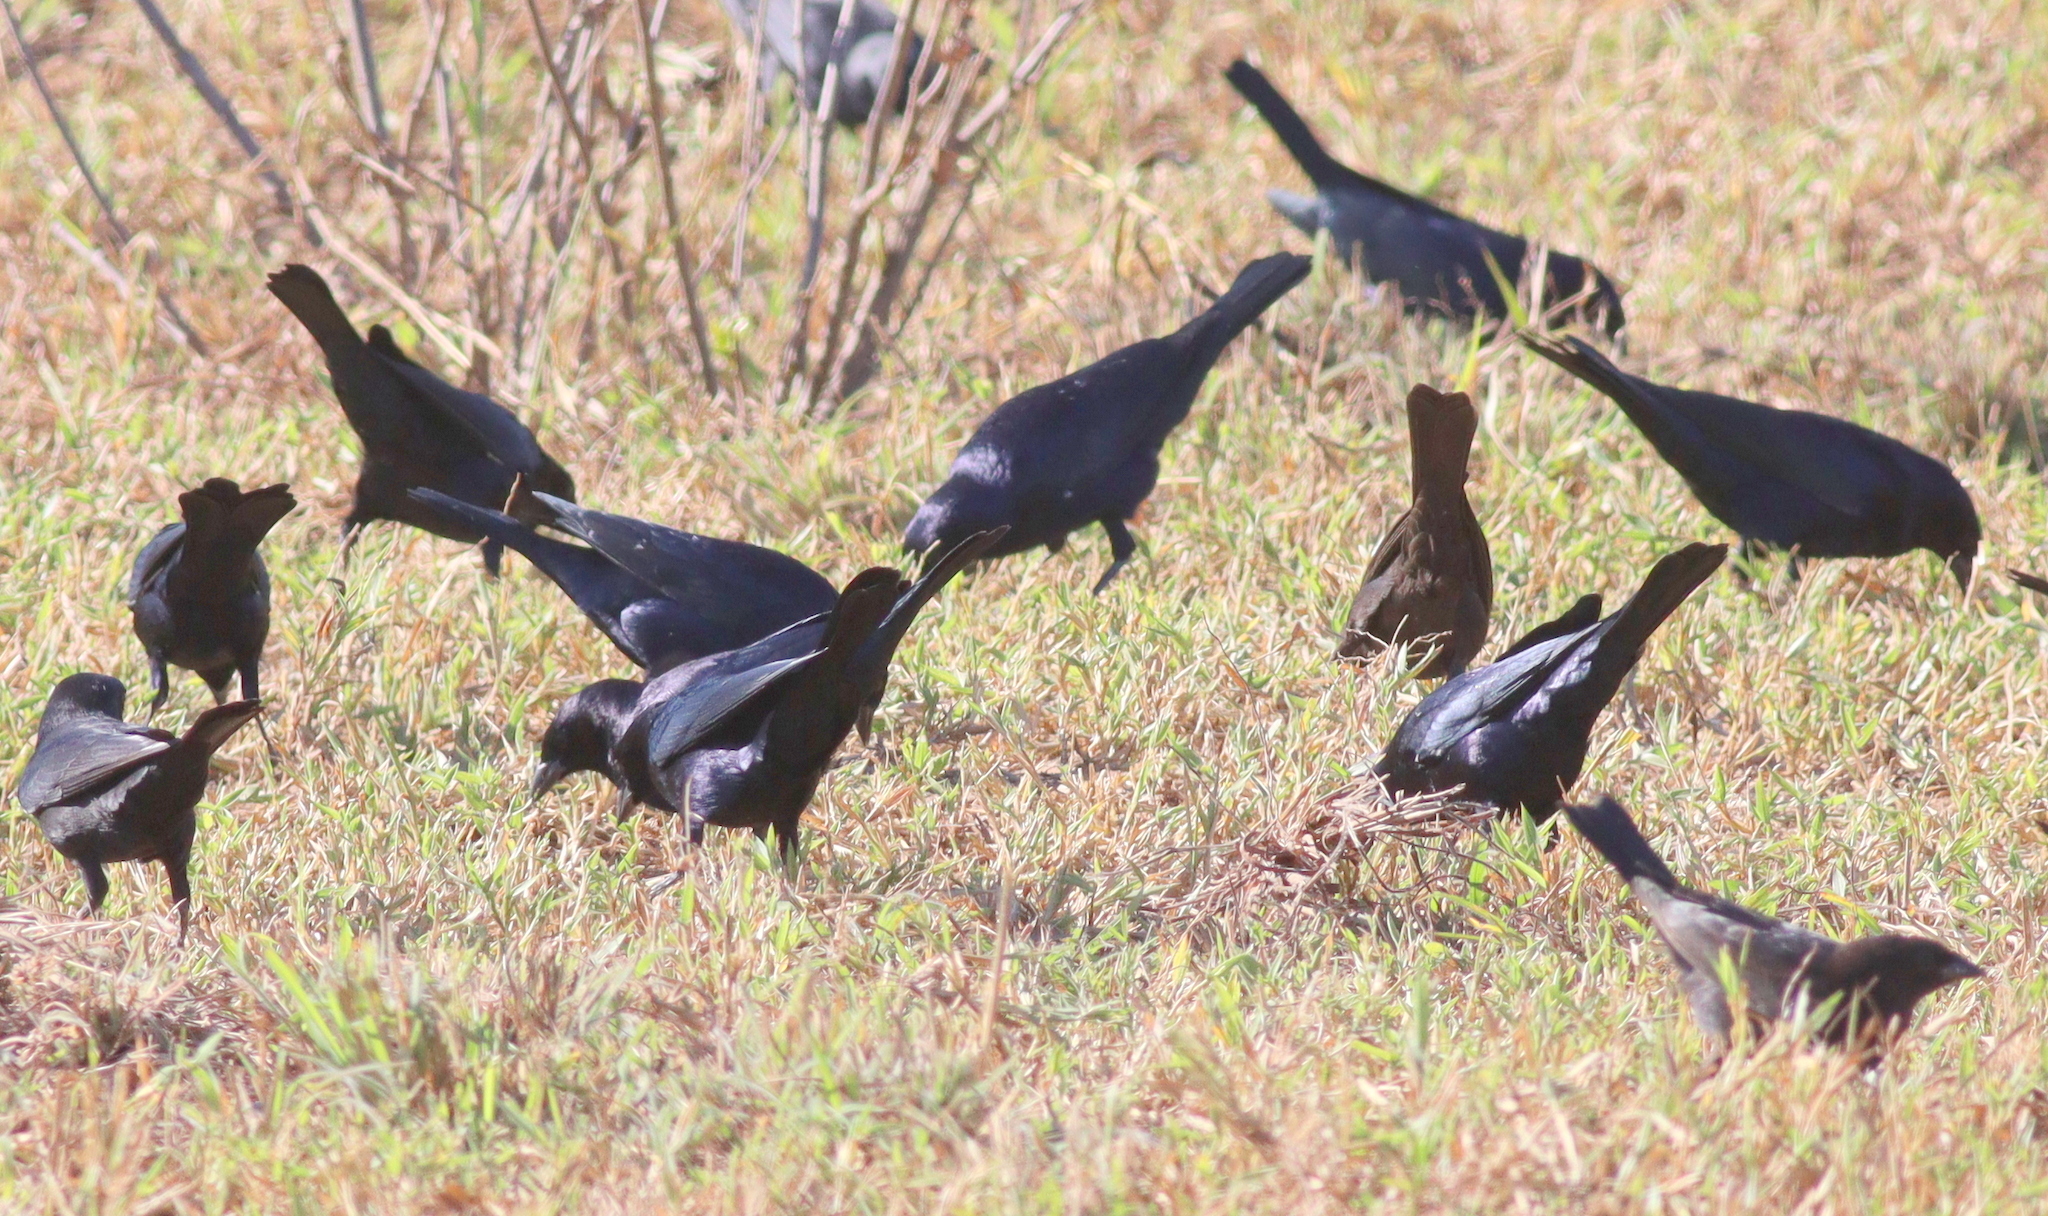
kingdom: Animalia
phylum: Chordata
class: Aves
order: Passeriformes
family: Icteridae
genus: Molothrus
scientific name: Molothrus bonariensis
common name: Shiny cowbird
